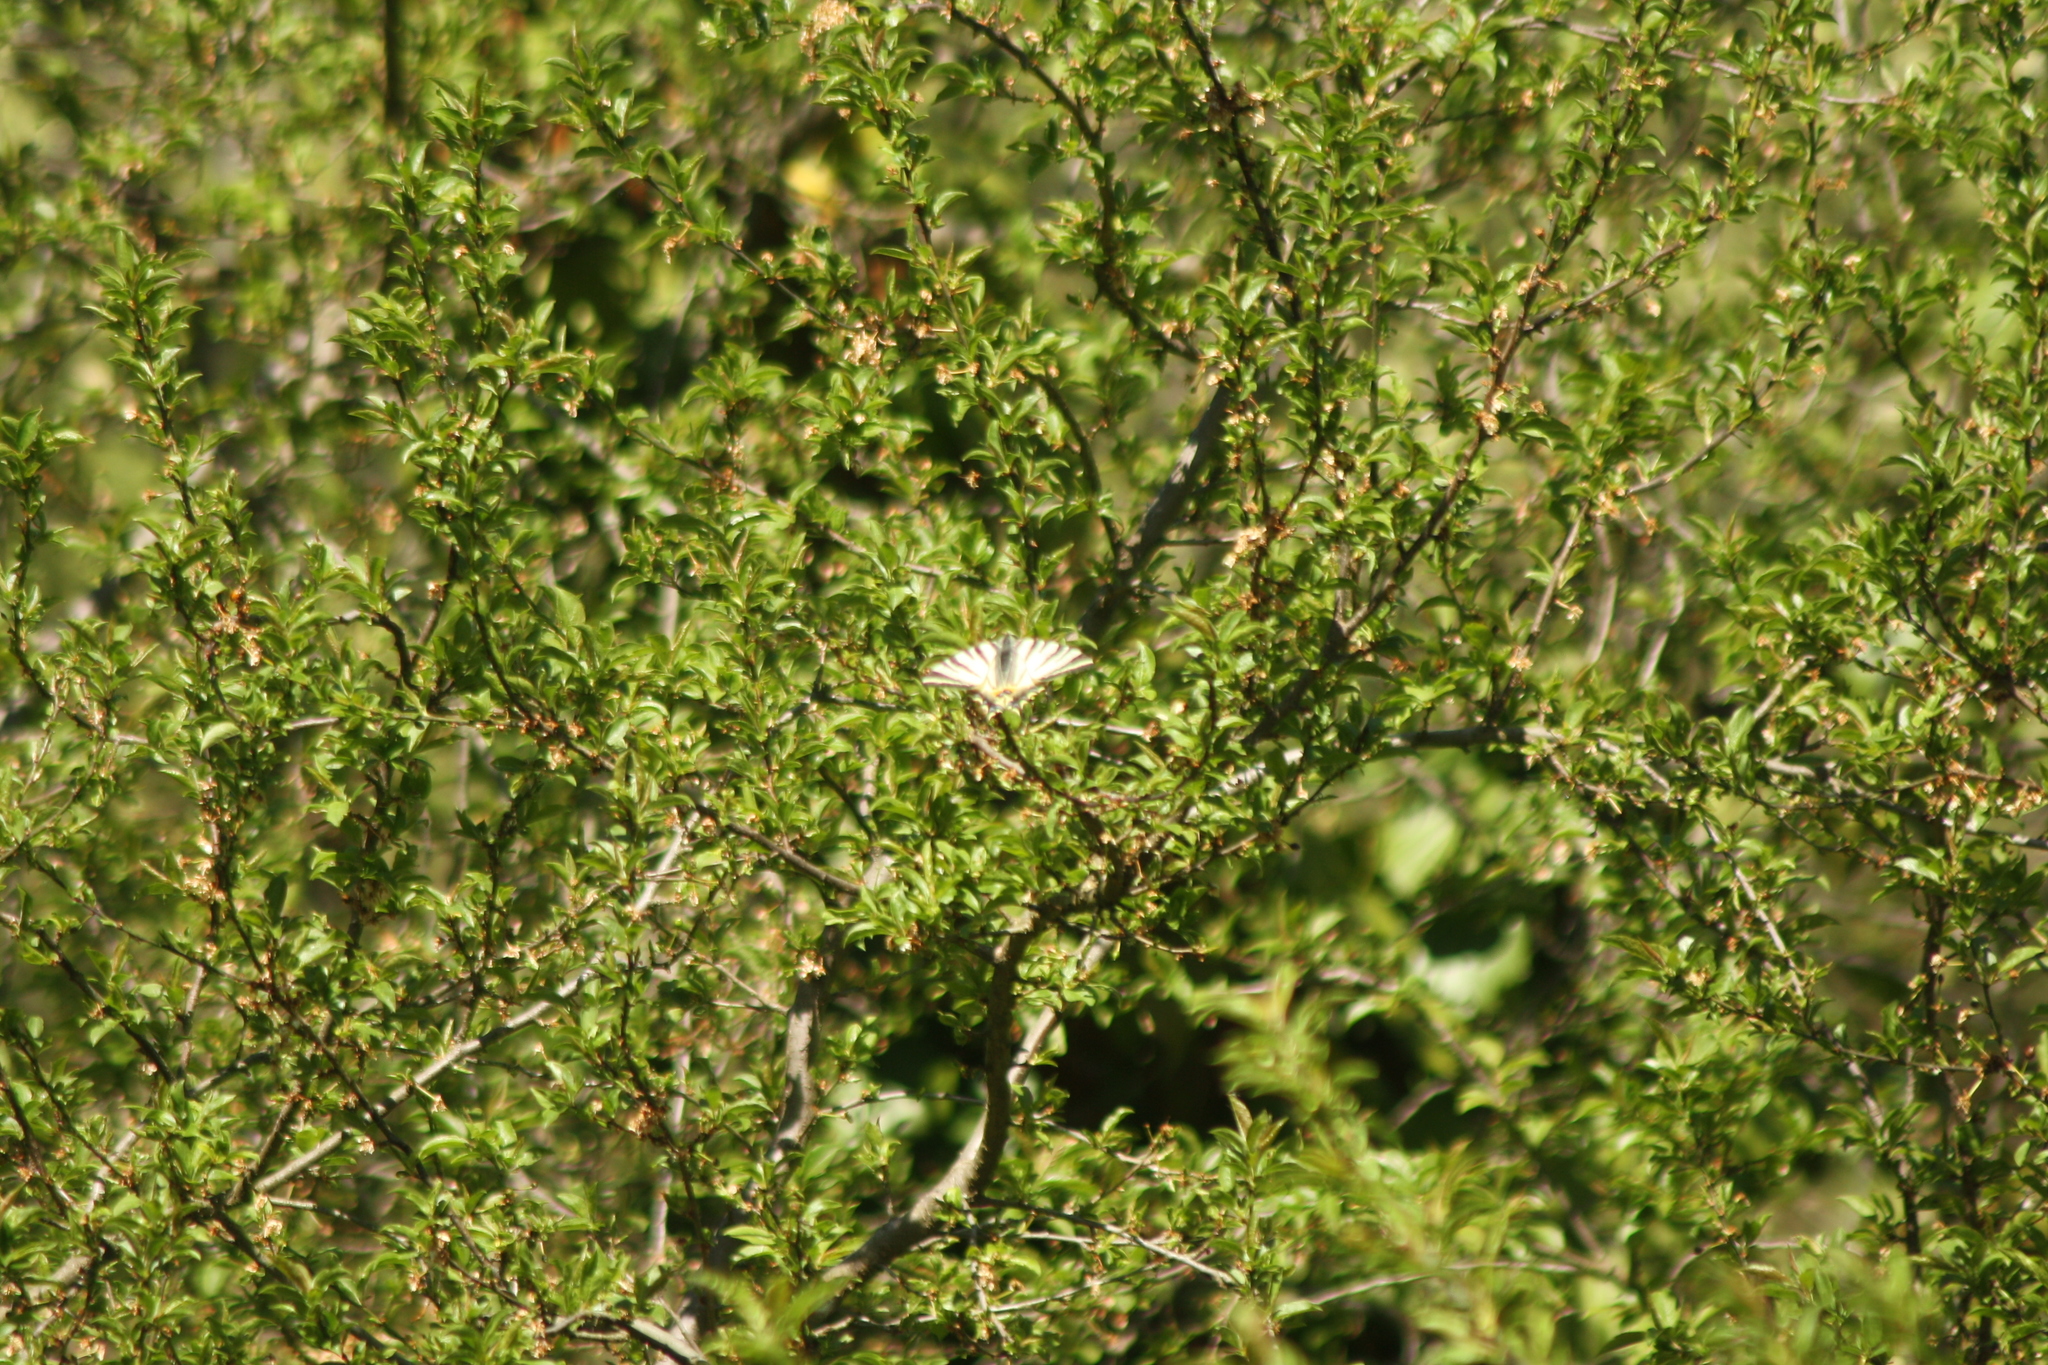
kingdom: Animalia
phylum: Arthropoda
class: Insecta
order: Lepidoptera
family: Papilionidae
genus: Iphiclides
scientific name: Iphiclides podalirius
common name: Scarce swallowtail
